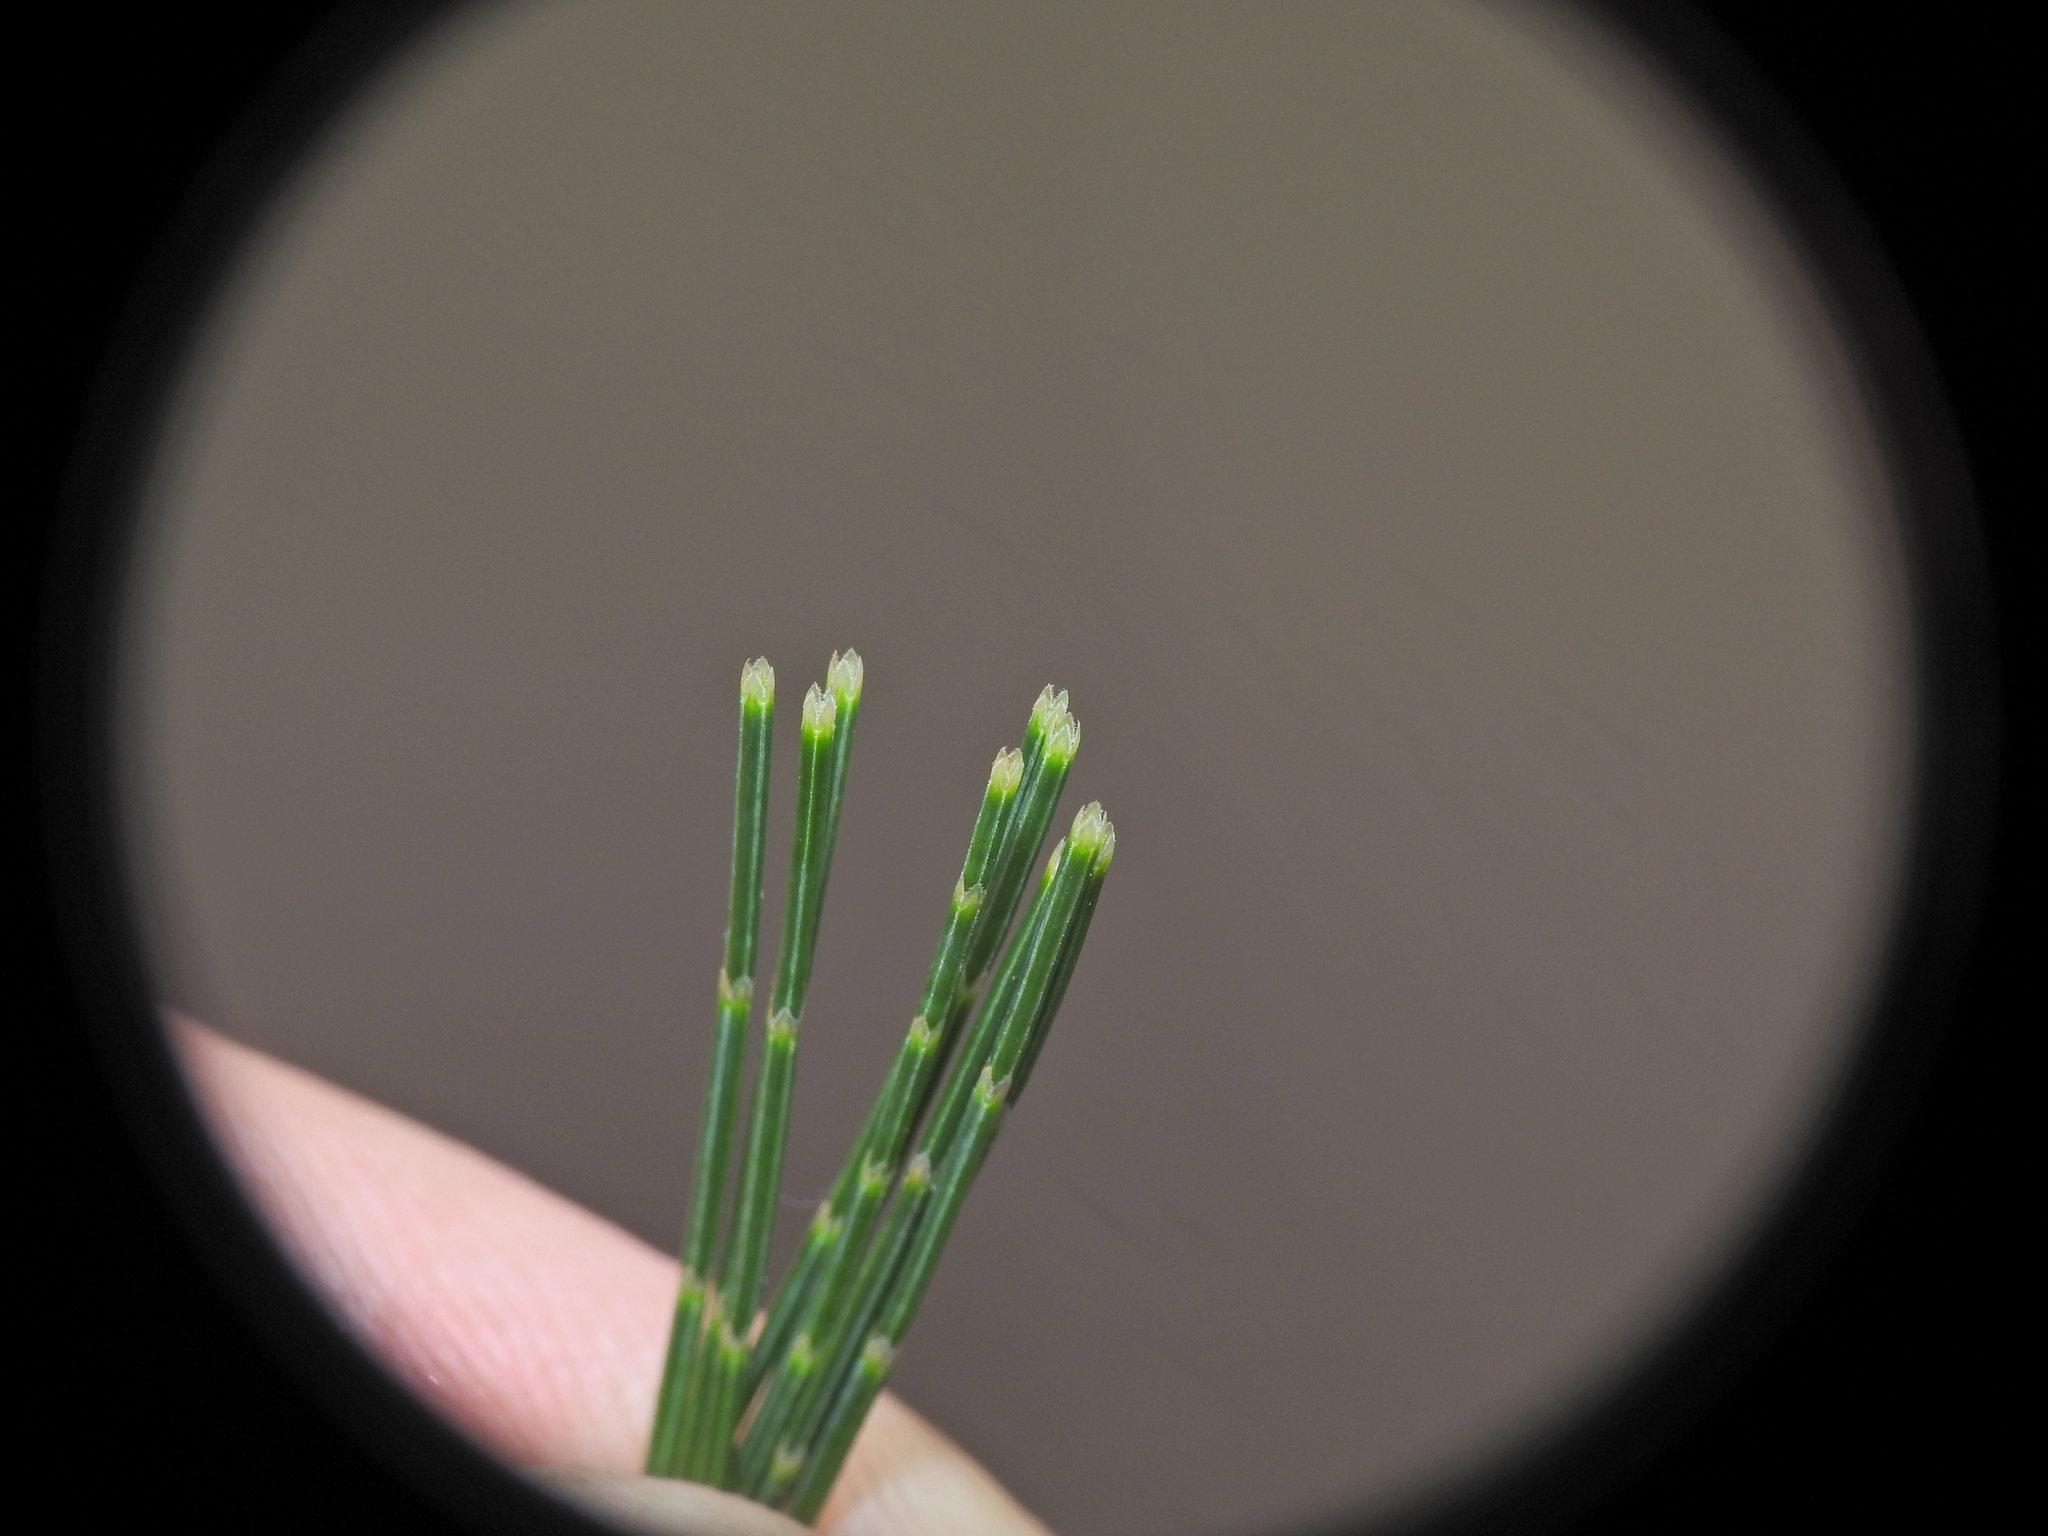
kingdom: Plantae
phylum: Tracheophyta
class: Magnoliopsida
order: Fagales
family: Casuarinaceae
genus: Allocasuarina
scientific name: Allocasuarina torulosa
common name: Forest-oak
